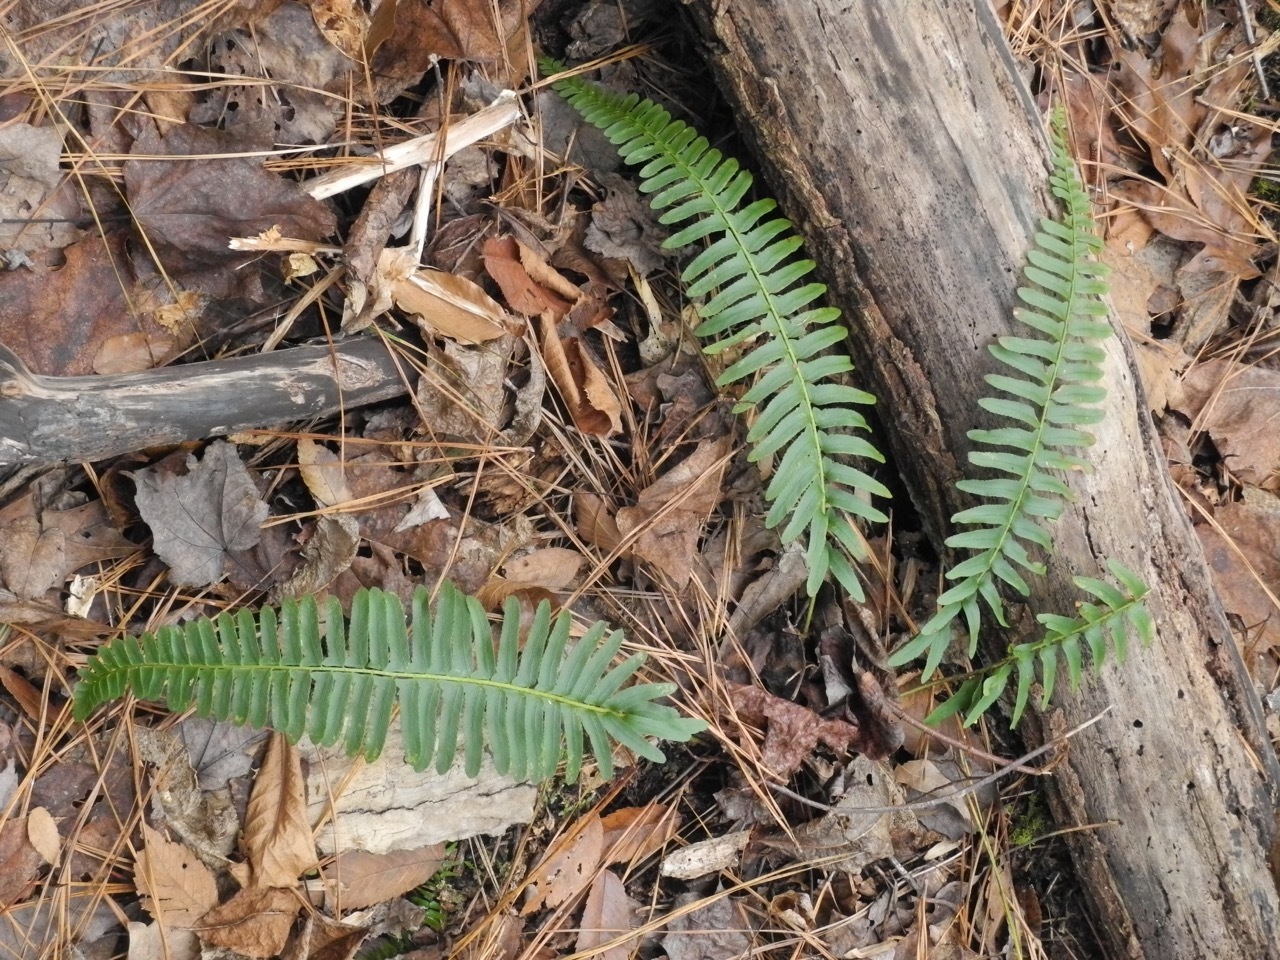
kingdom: Plantae
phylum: Tracheophyta
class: Polypodiopsida
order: Polypodiales
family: Dryopteridaceae
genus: Polystichum
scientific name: Polystichum acrostichoides
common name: Christmas fern
